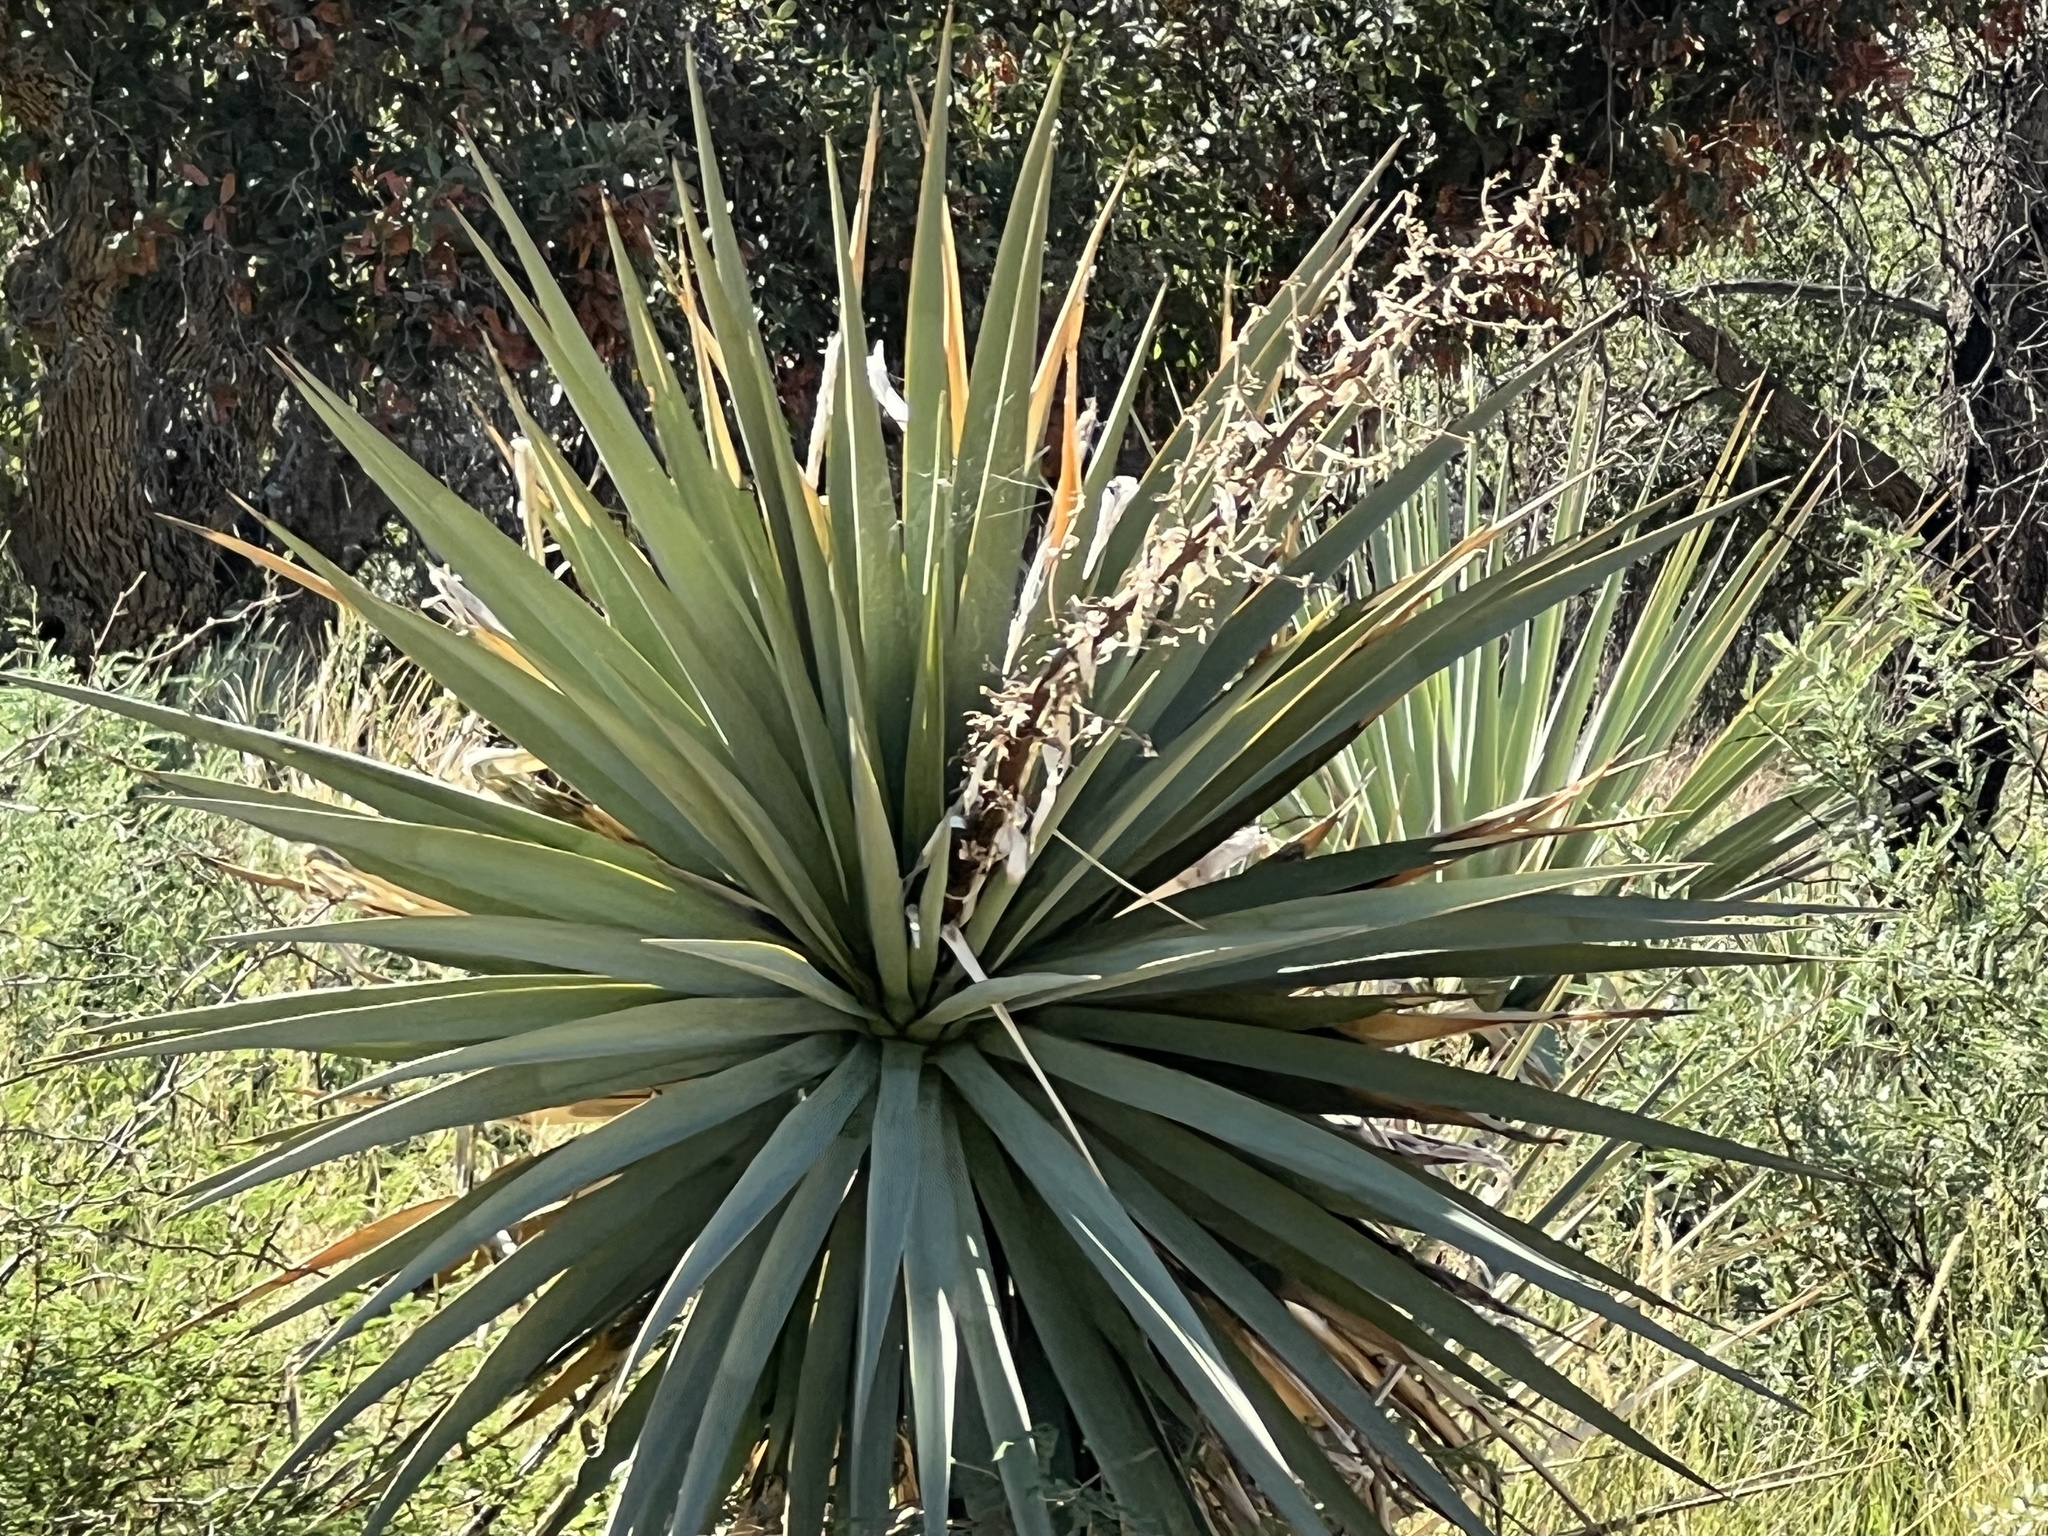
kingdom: Plantae
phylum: Tracheophyta
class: Liliopsida
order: Asparagales
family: Asparagaceae
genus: Yucca
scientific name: Yucca schottii
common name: Hoary yucca
